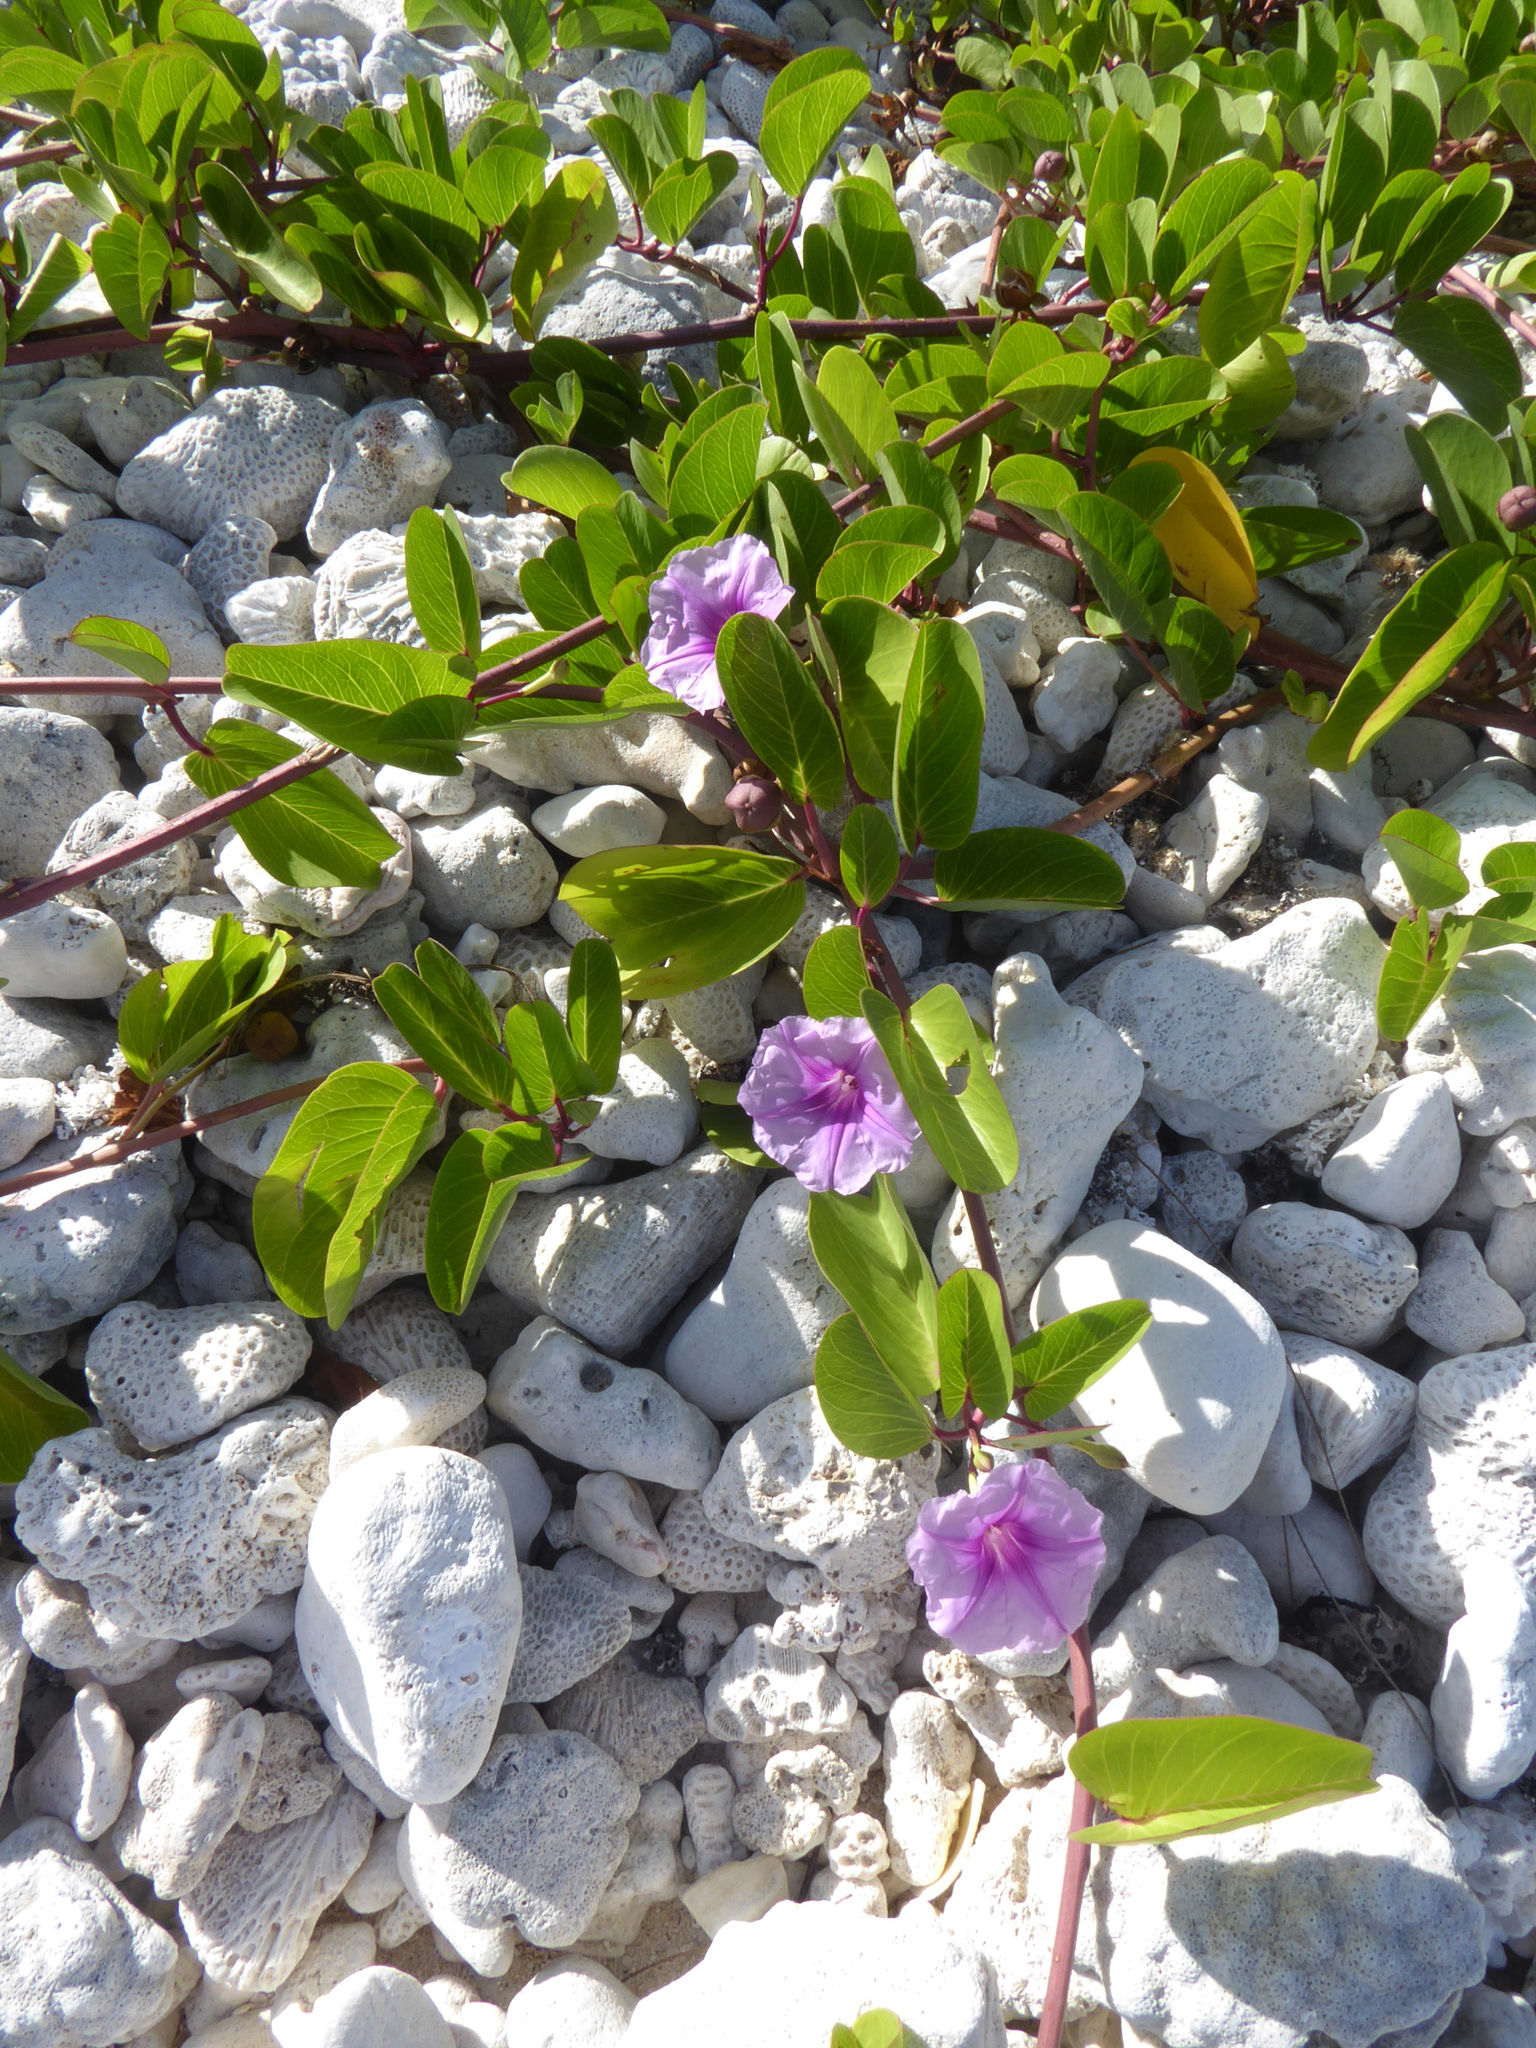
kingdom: Plantae
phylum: Tracheophyta
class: Magnoliopsida
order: Solanales
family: Convolvulaceae
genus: Ipomoea
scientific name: Ipomoea pes-caprae
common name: Beach morning glory
